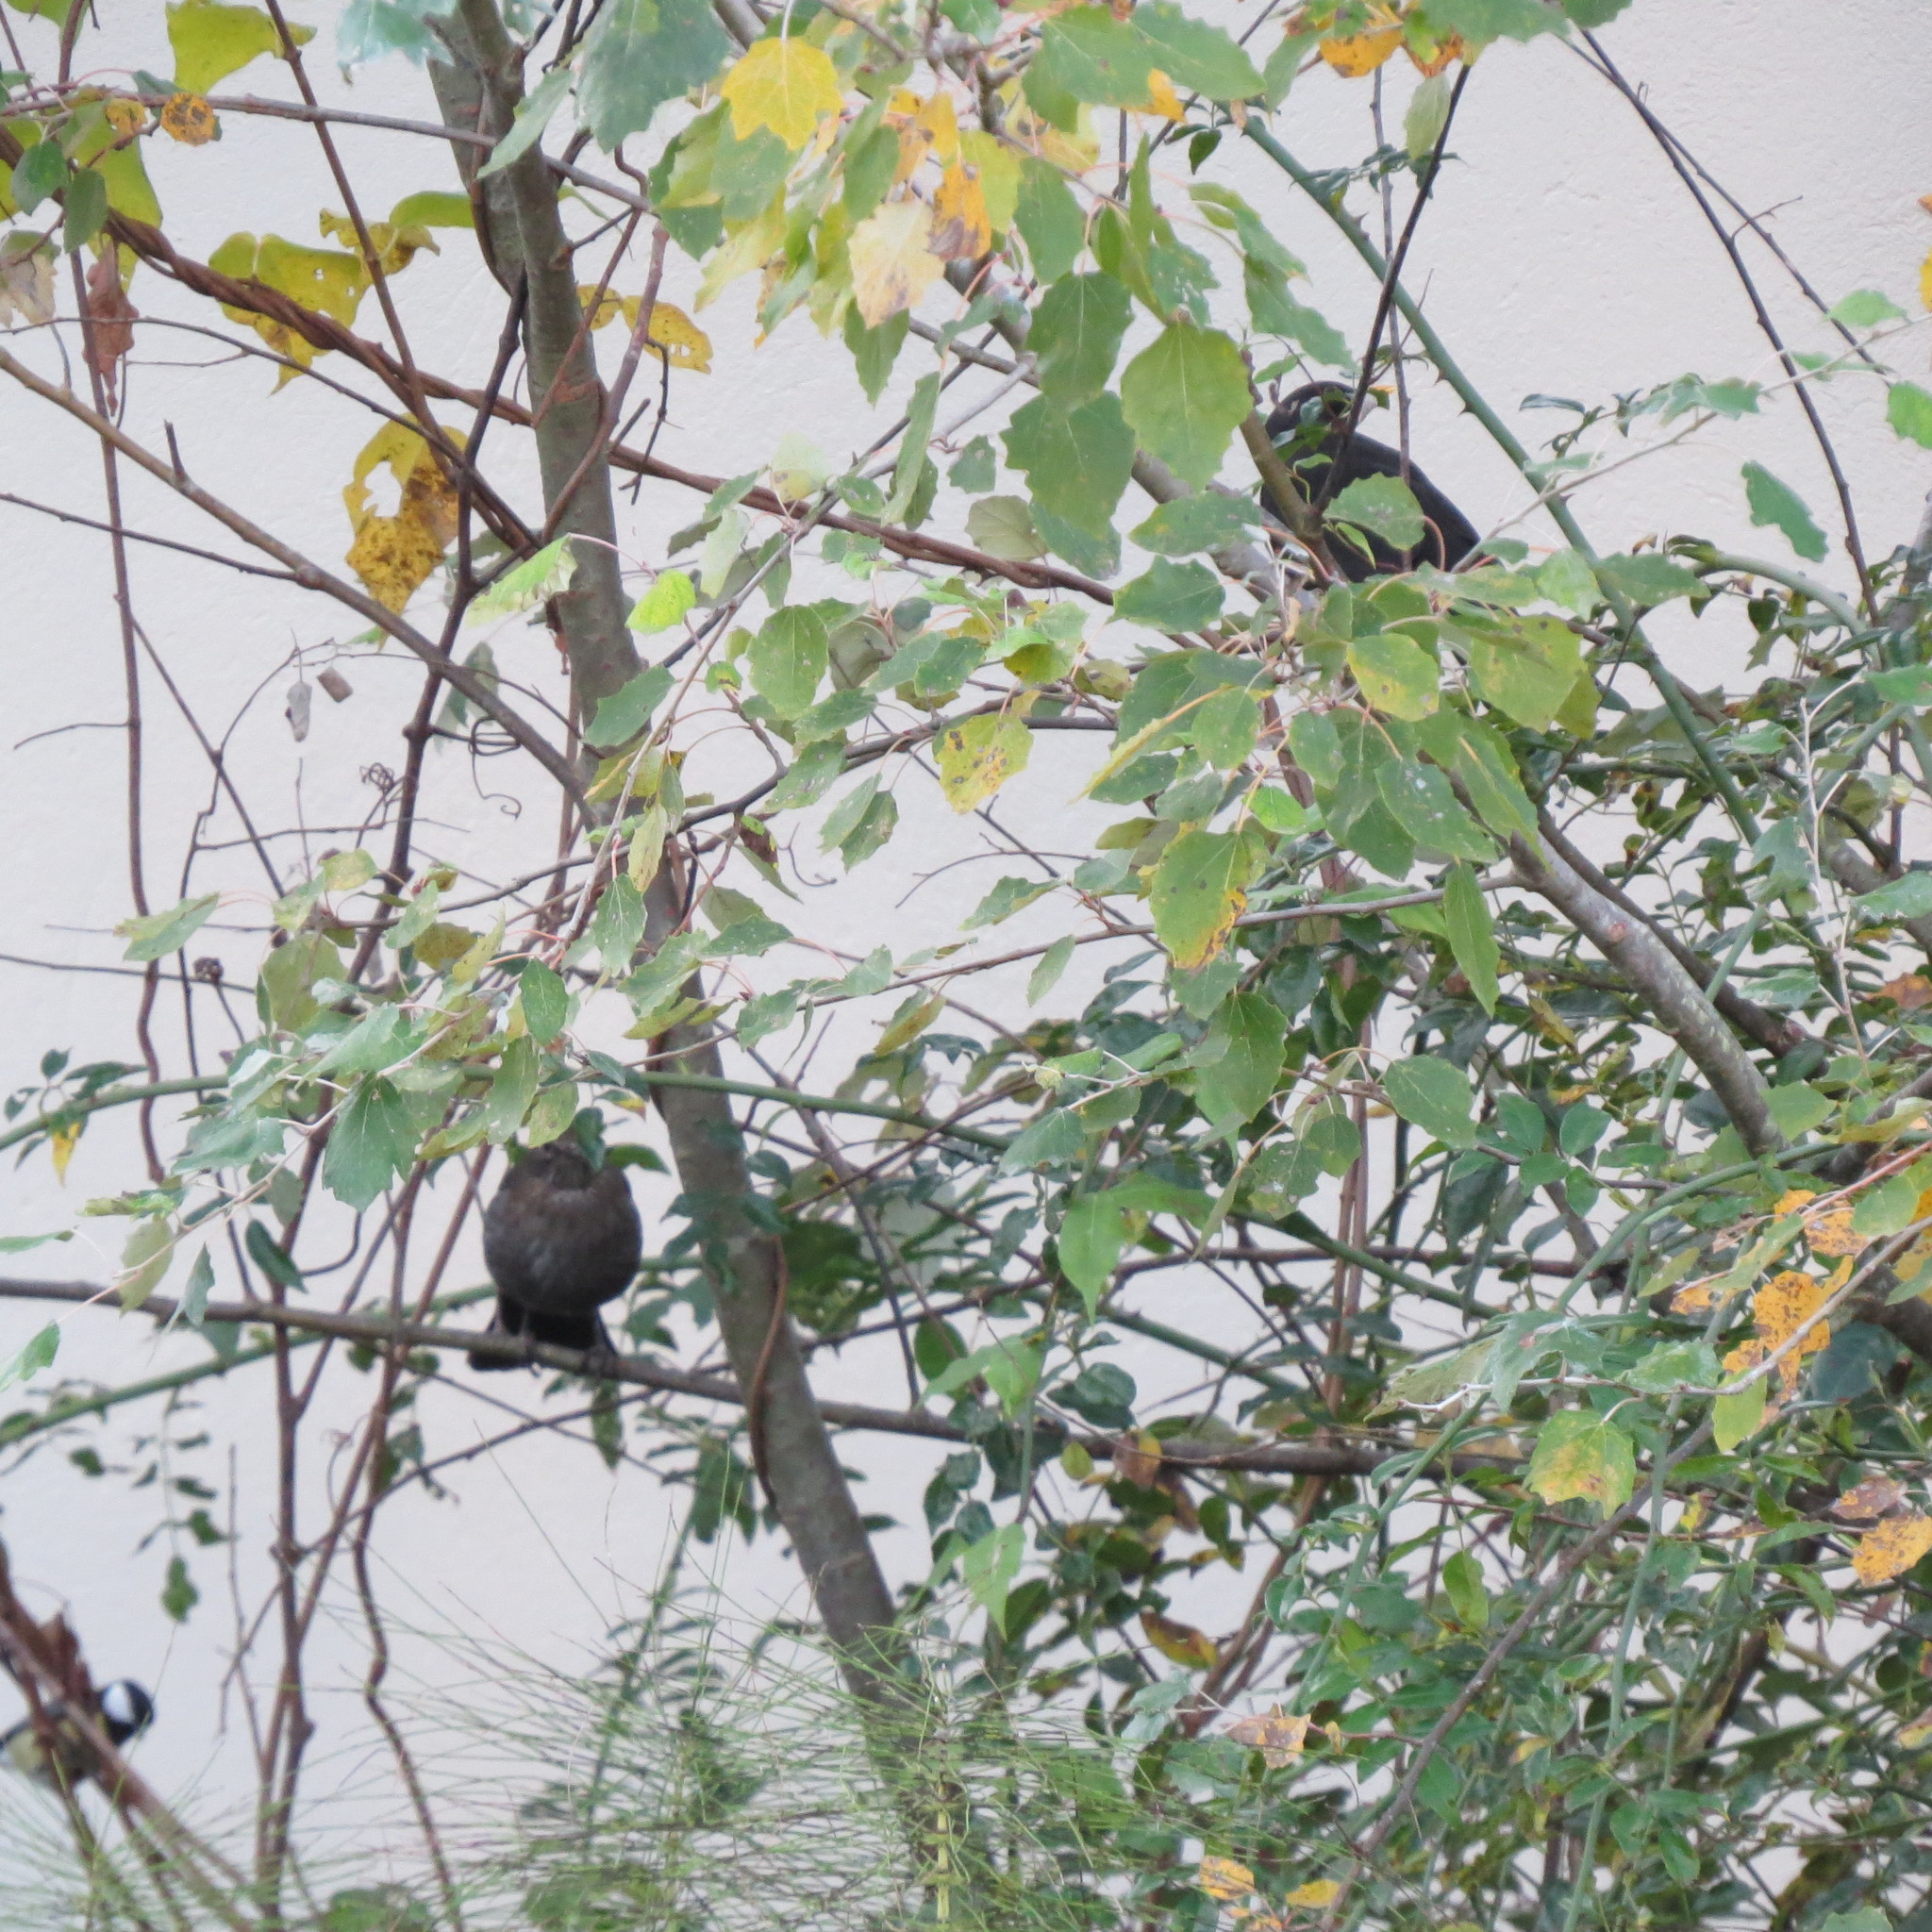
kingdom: Animalia
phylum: Chordata
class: Aves
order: Passeriformes
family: Turdidae
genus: Turdus
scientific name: Turdus merula
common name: Common blackbird
